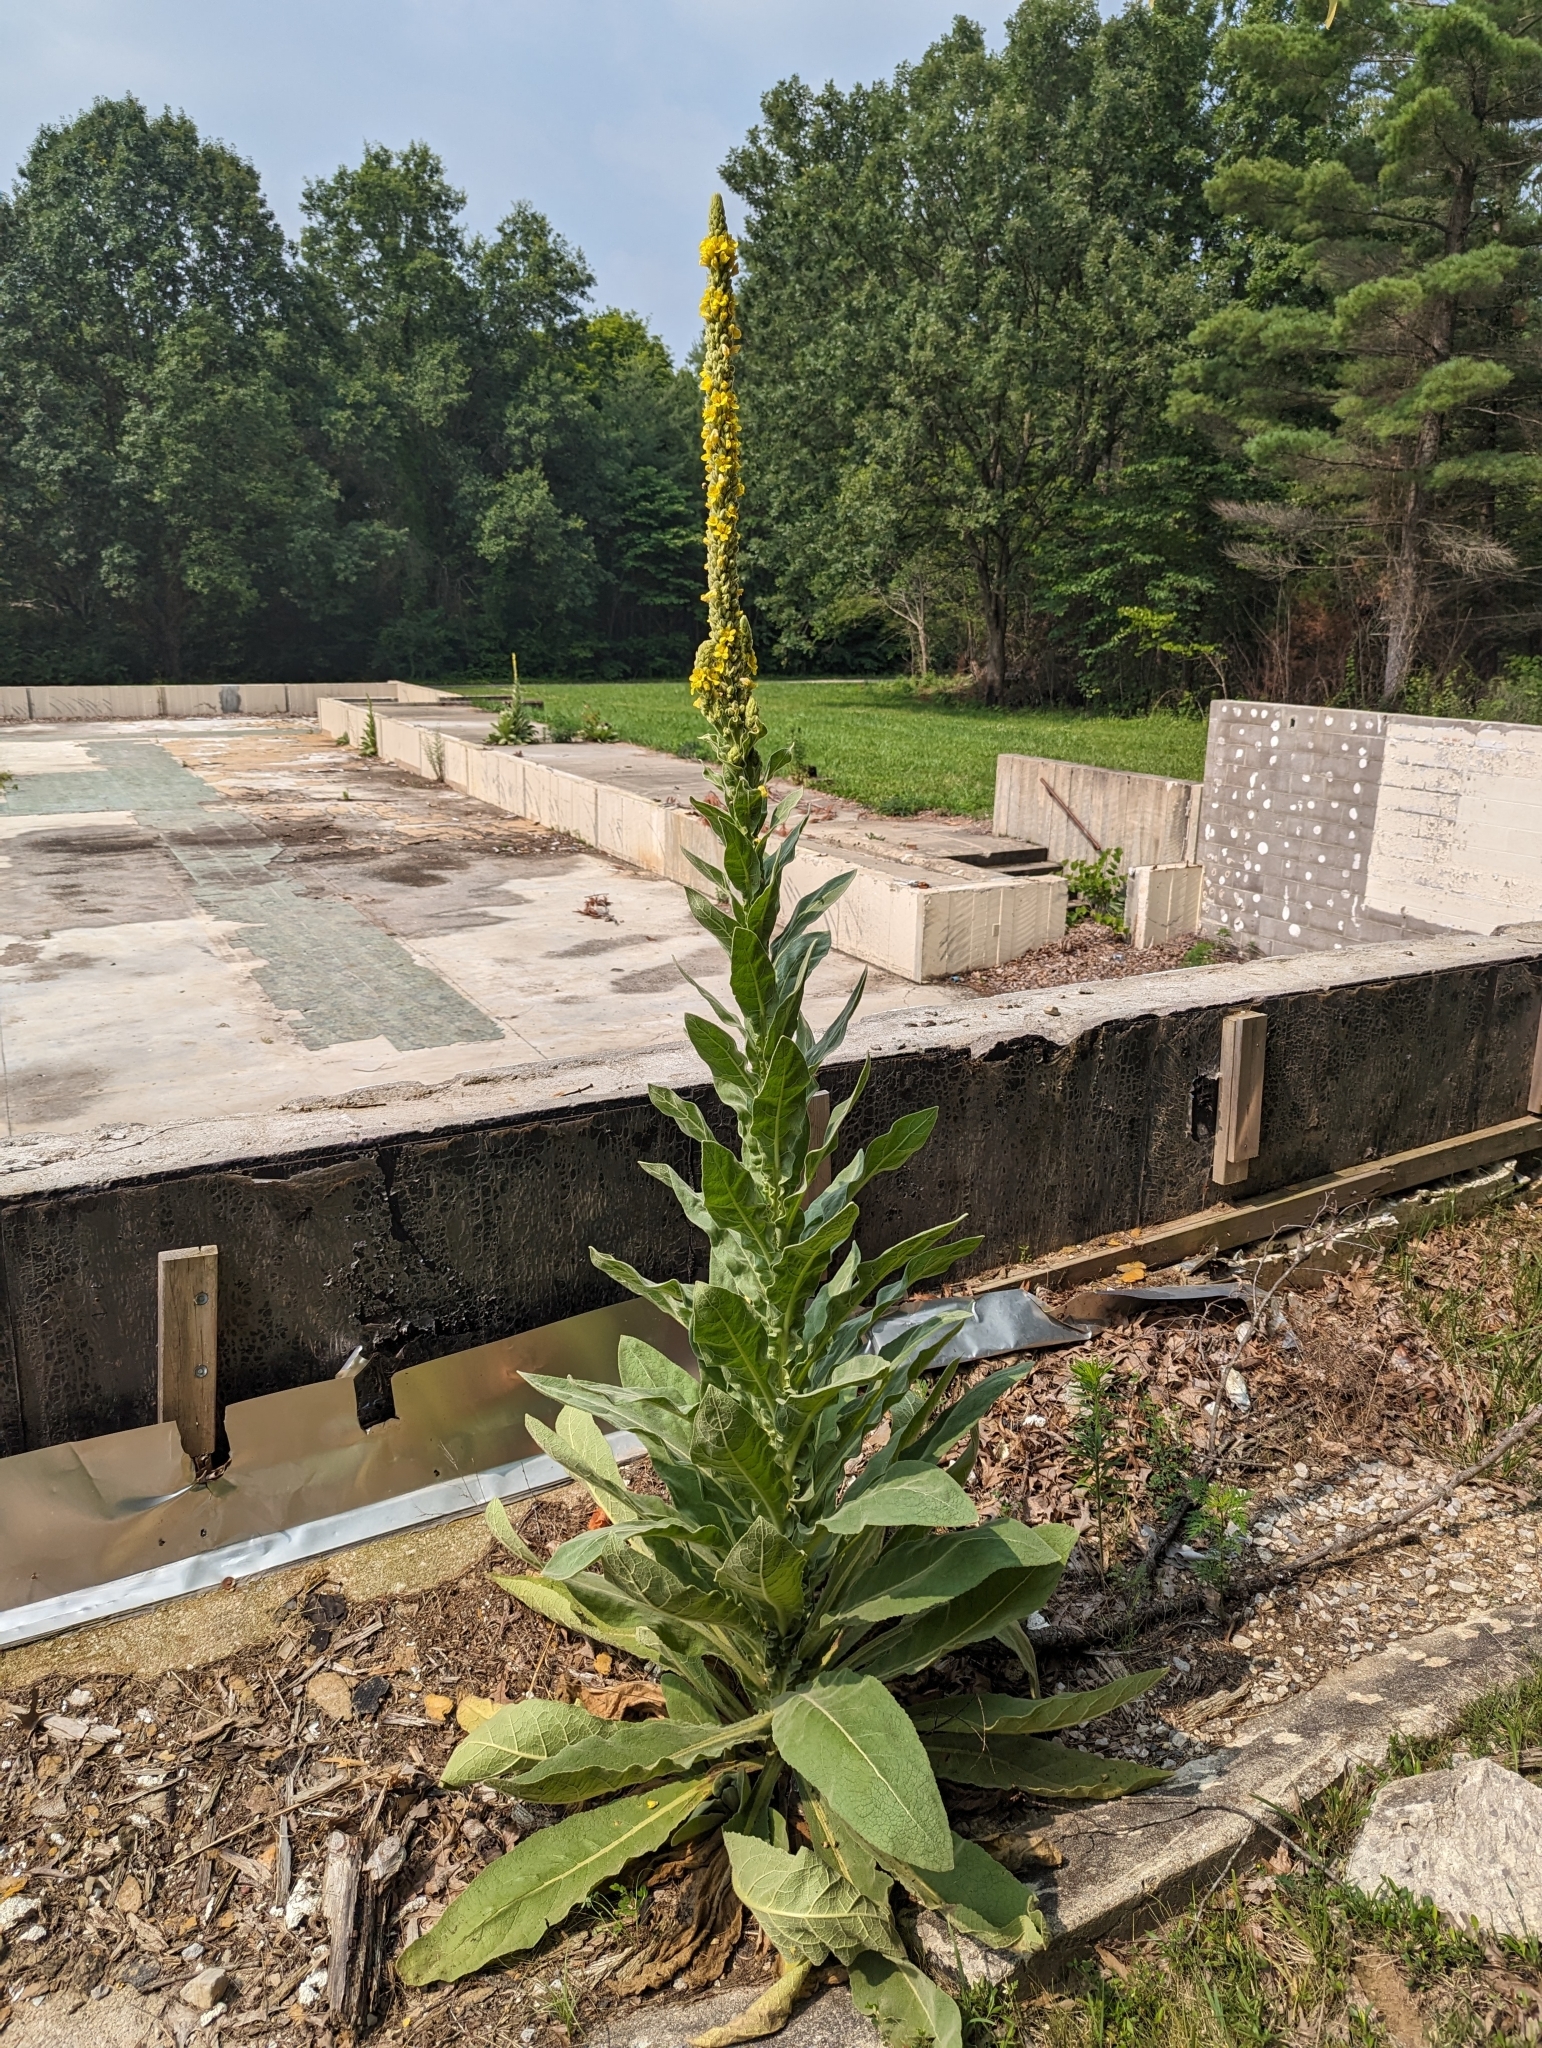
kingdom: Plantae
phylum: Tracheophyta
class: Magnoliopsida
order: Lamiales
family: Scrophulariaceae
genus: Verbascum
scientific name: Verbascum thapsus
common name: Common mullein
